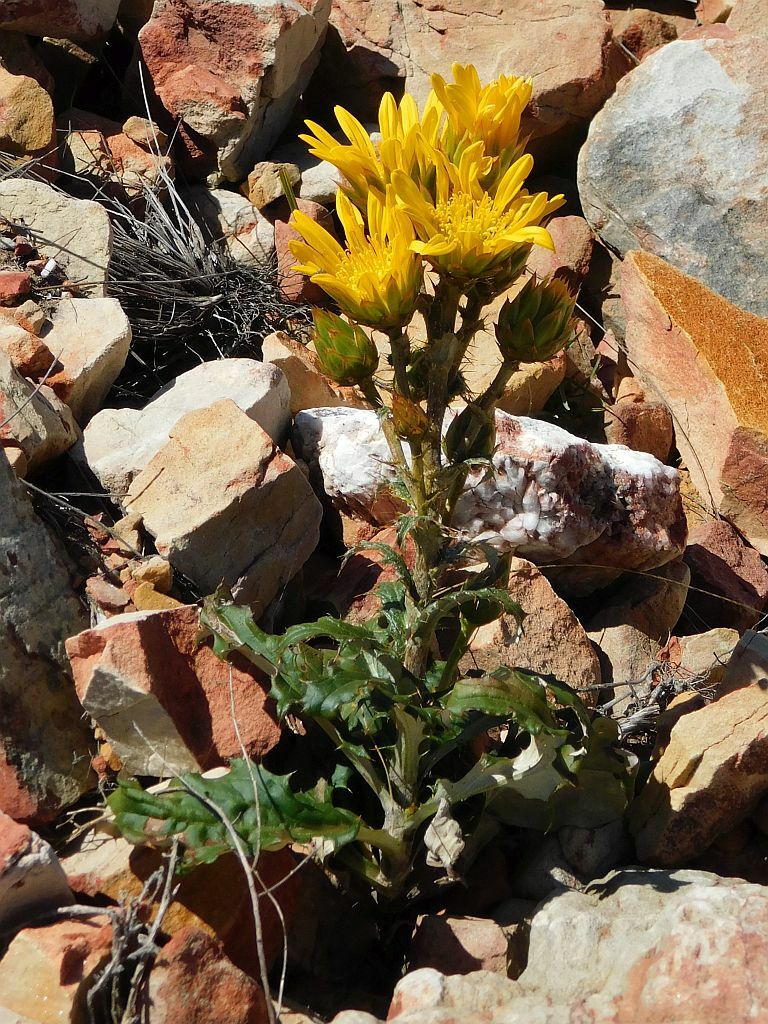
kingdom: Plantae
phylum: Tracheophyta
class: Magnoliopsida
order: Asterales
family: Asteraceae
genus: Berkheya
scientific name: Berkheya herbacea
